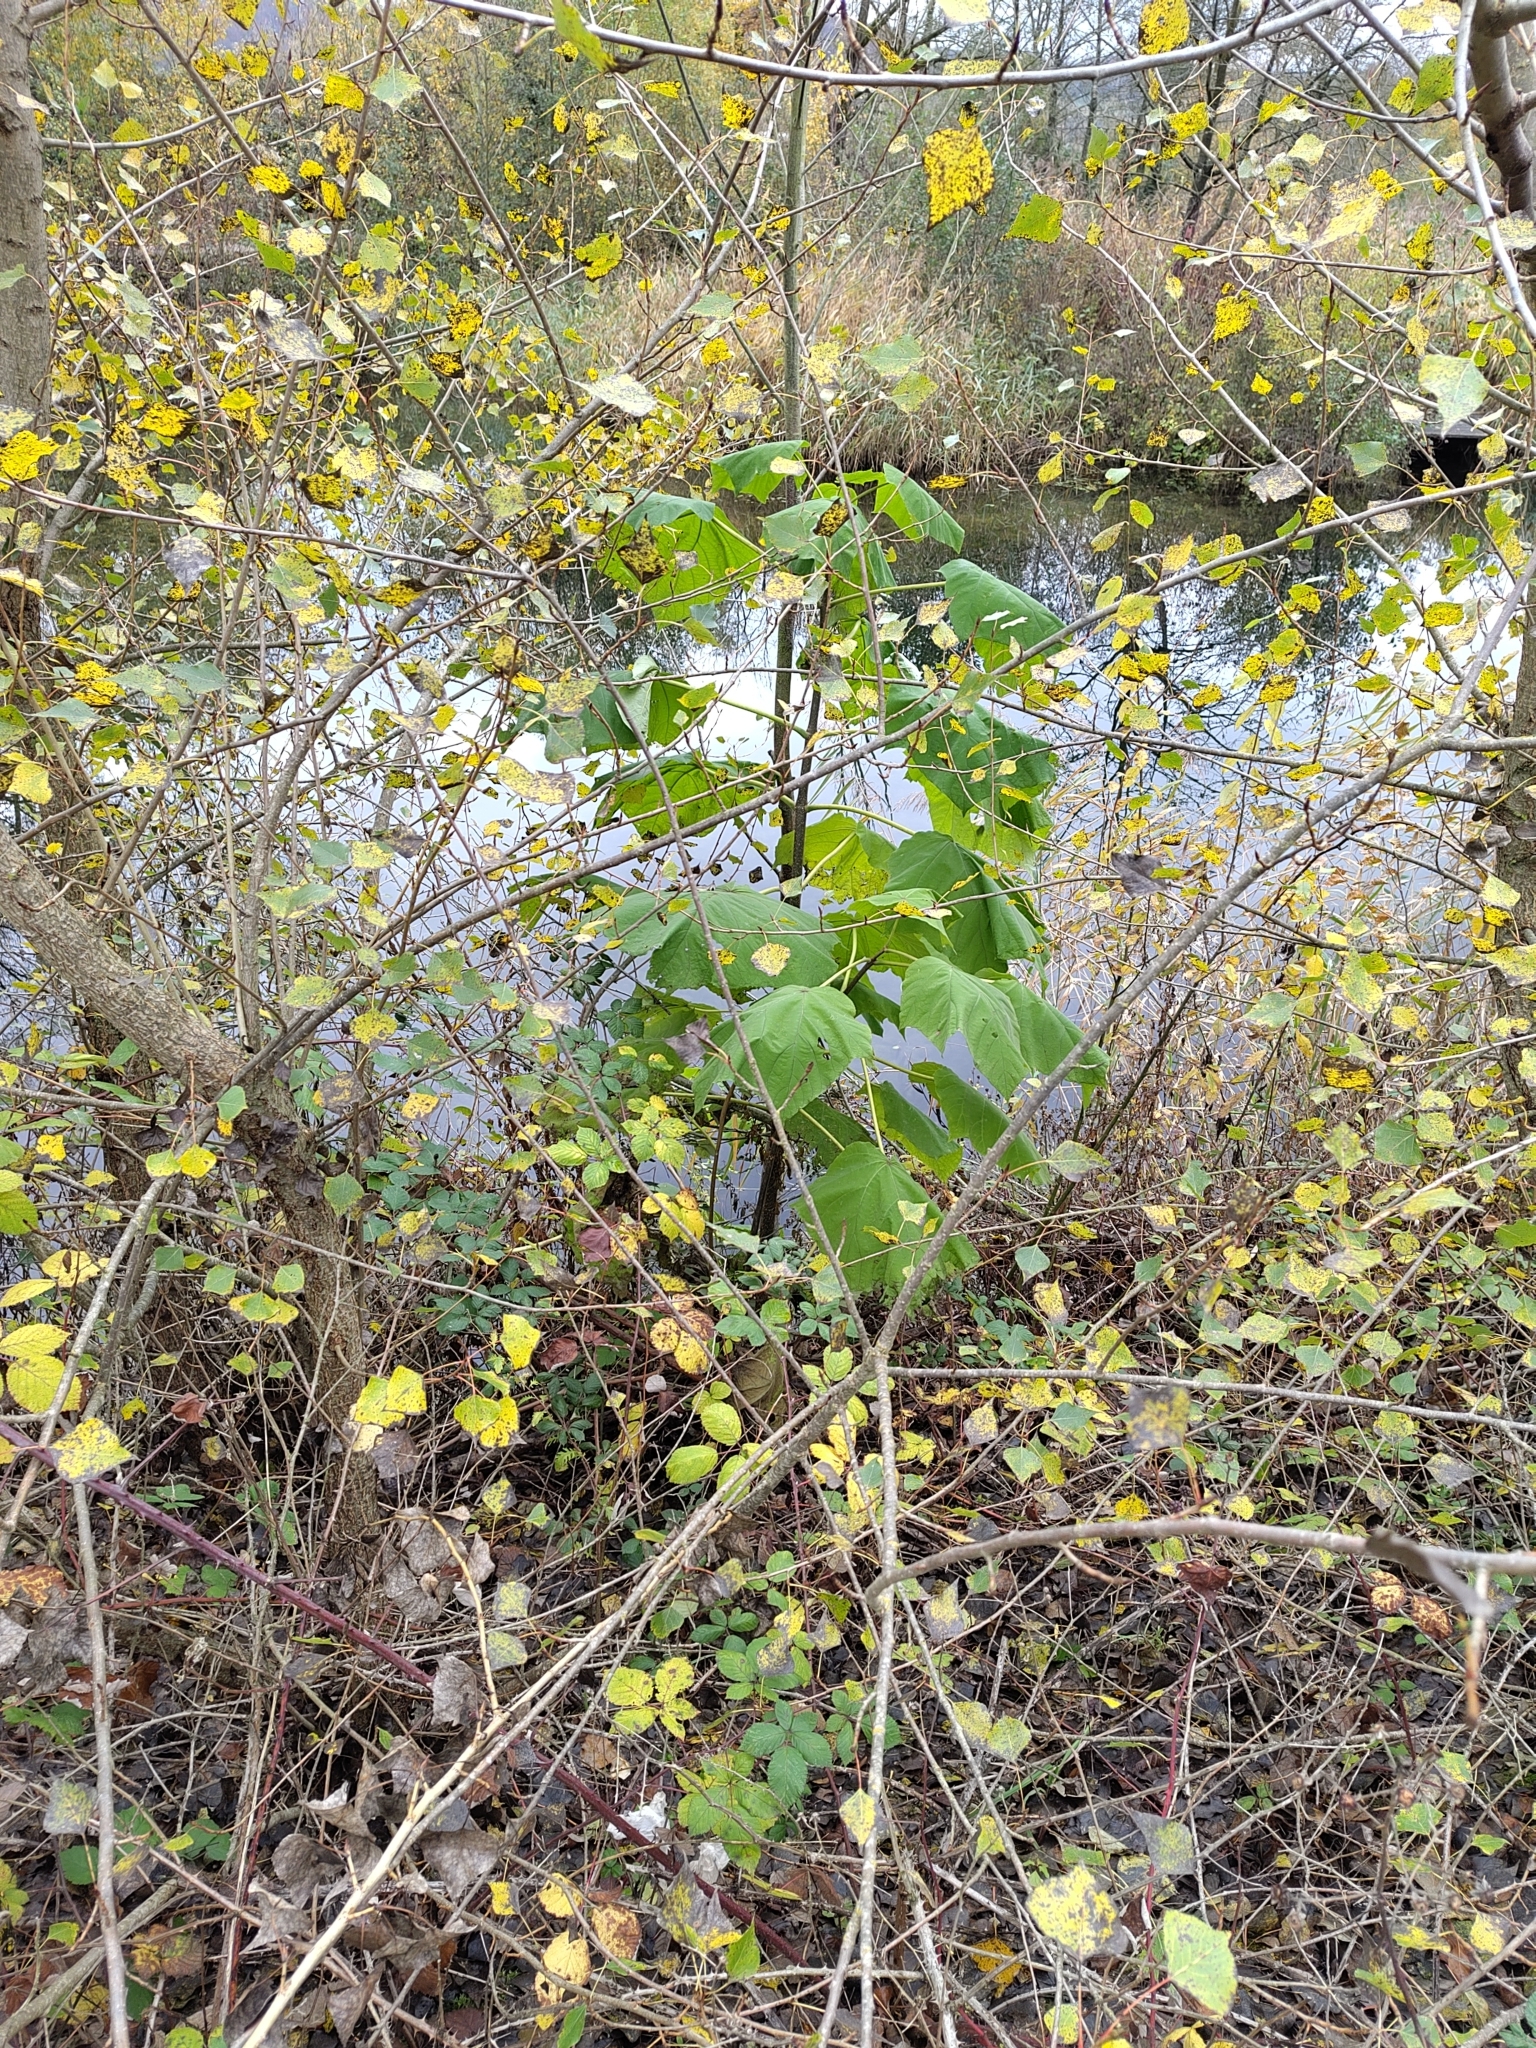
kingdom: Plantae
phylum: Tracheophyta
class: Magnoliopsida
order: Lamiales
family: Paulowniaceae
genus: Paulownia
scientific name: Paulownia tomentosa
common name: Foxglove-tree
